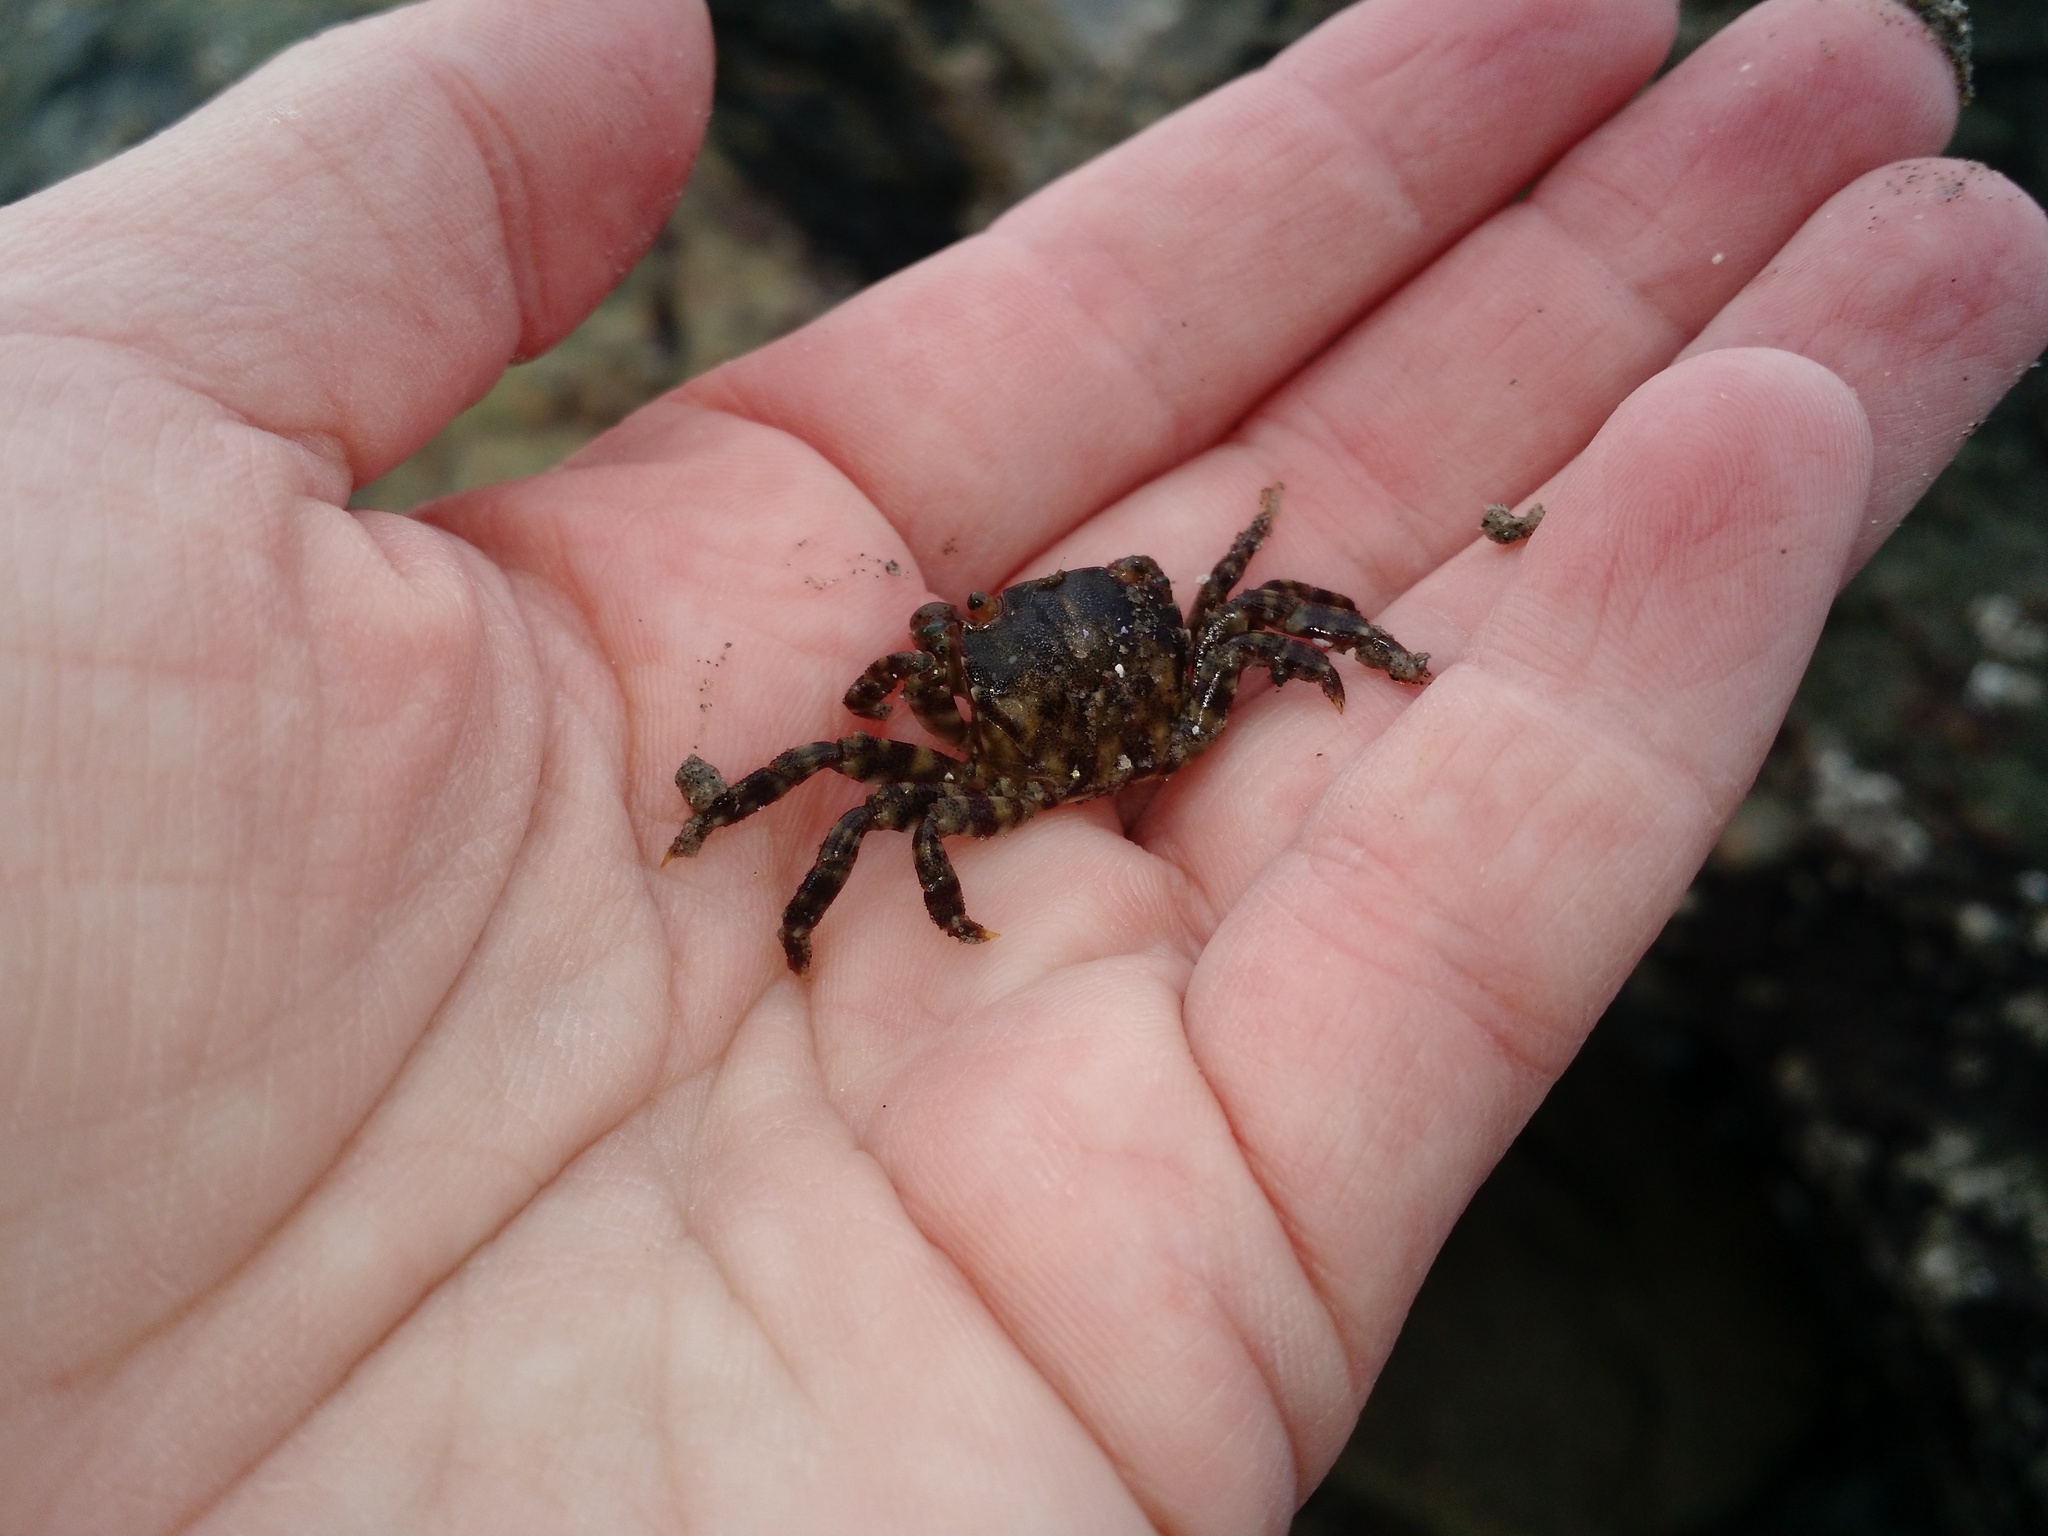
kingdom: Animalia
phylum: Arthropoda
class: Malacostraca
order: Decapoda
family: Varunidae
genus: Hemigrapsus
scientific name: Hemigrapsus sanguineus
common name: Asian shore crab
